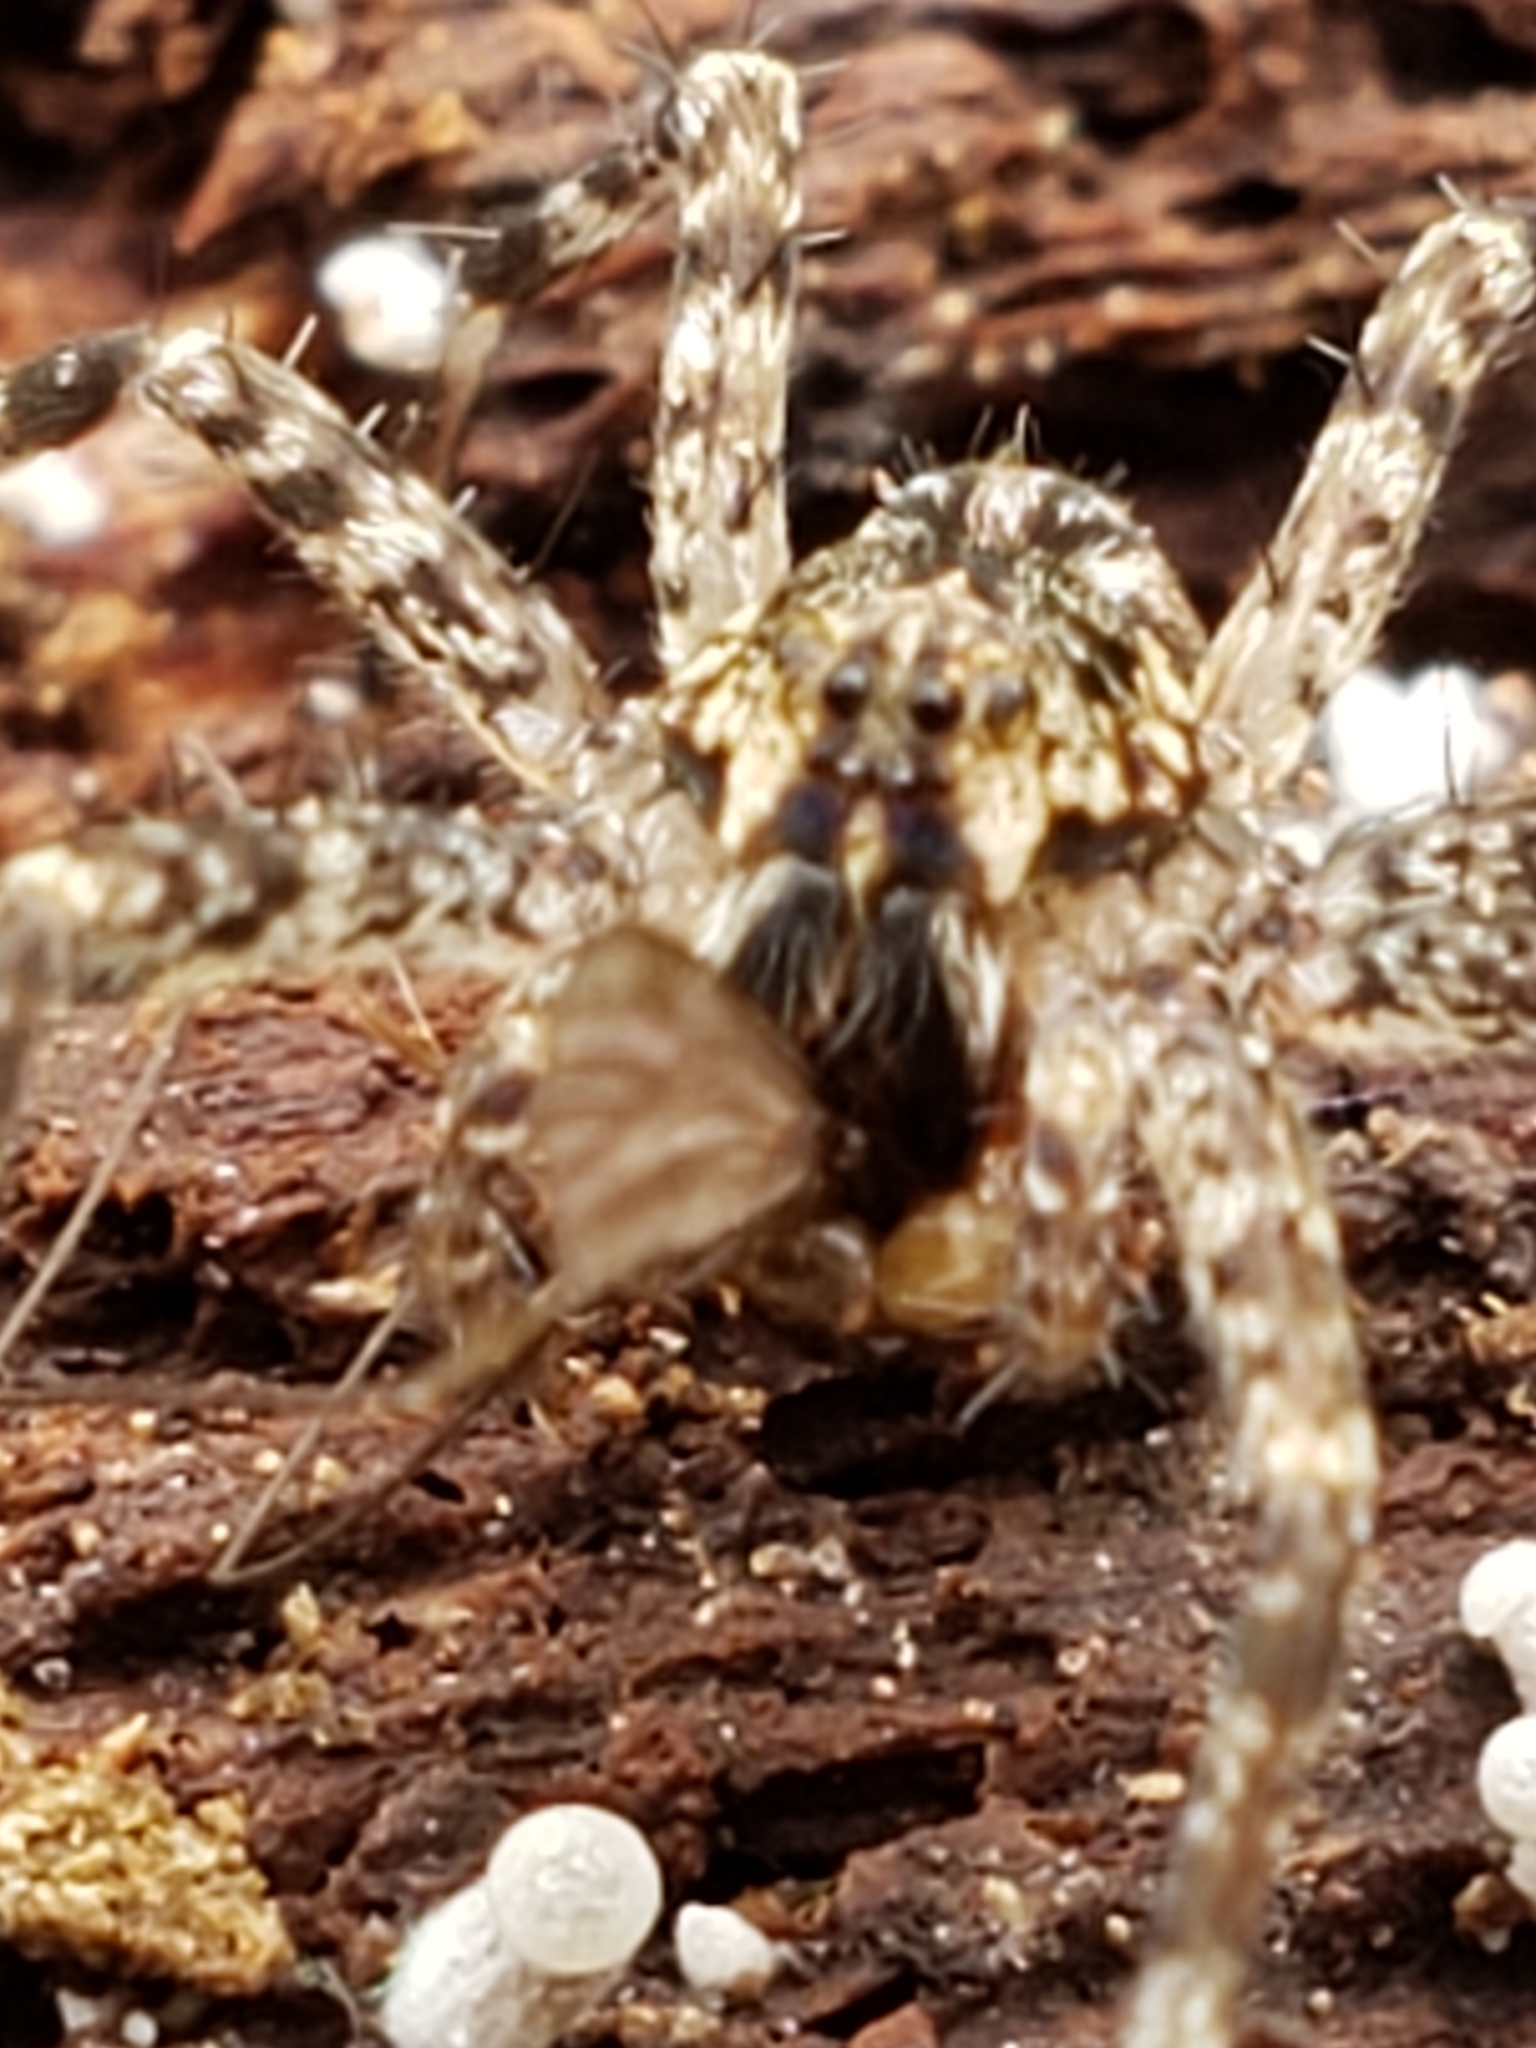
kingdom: Animalia
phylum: Arthropoda
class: Arachnida
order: Araneae
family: Pisauridae
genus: Dolomedes
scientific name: Dolomedes tenebrosus
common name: Dark fishing spider
